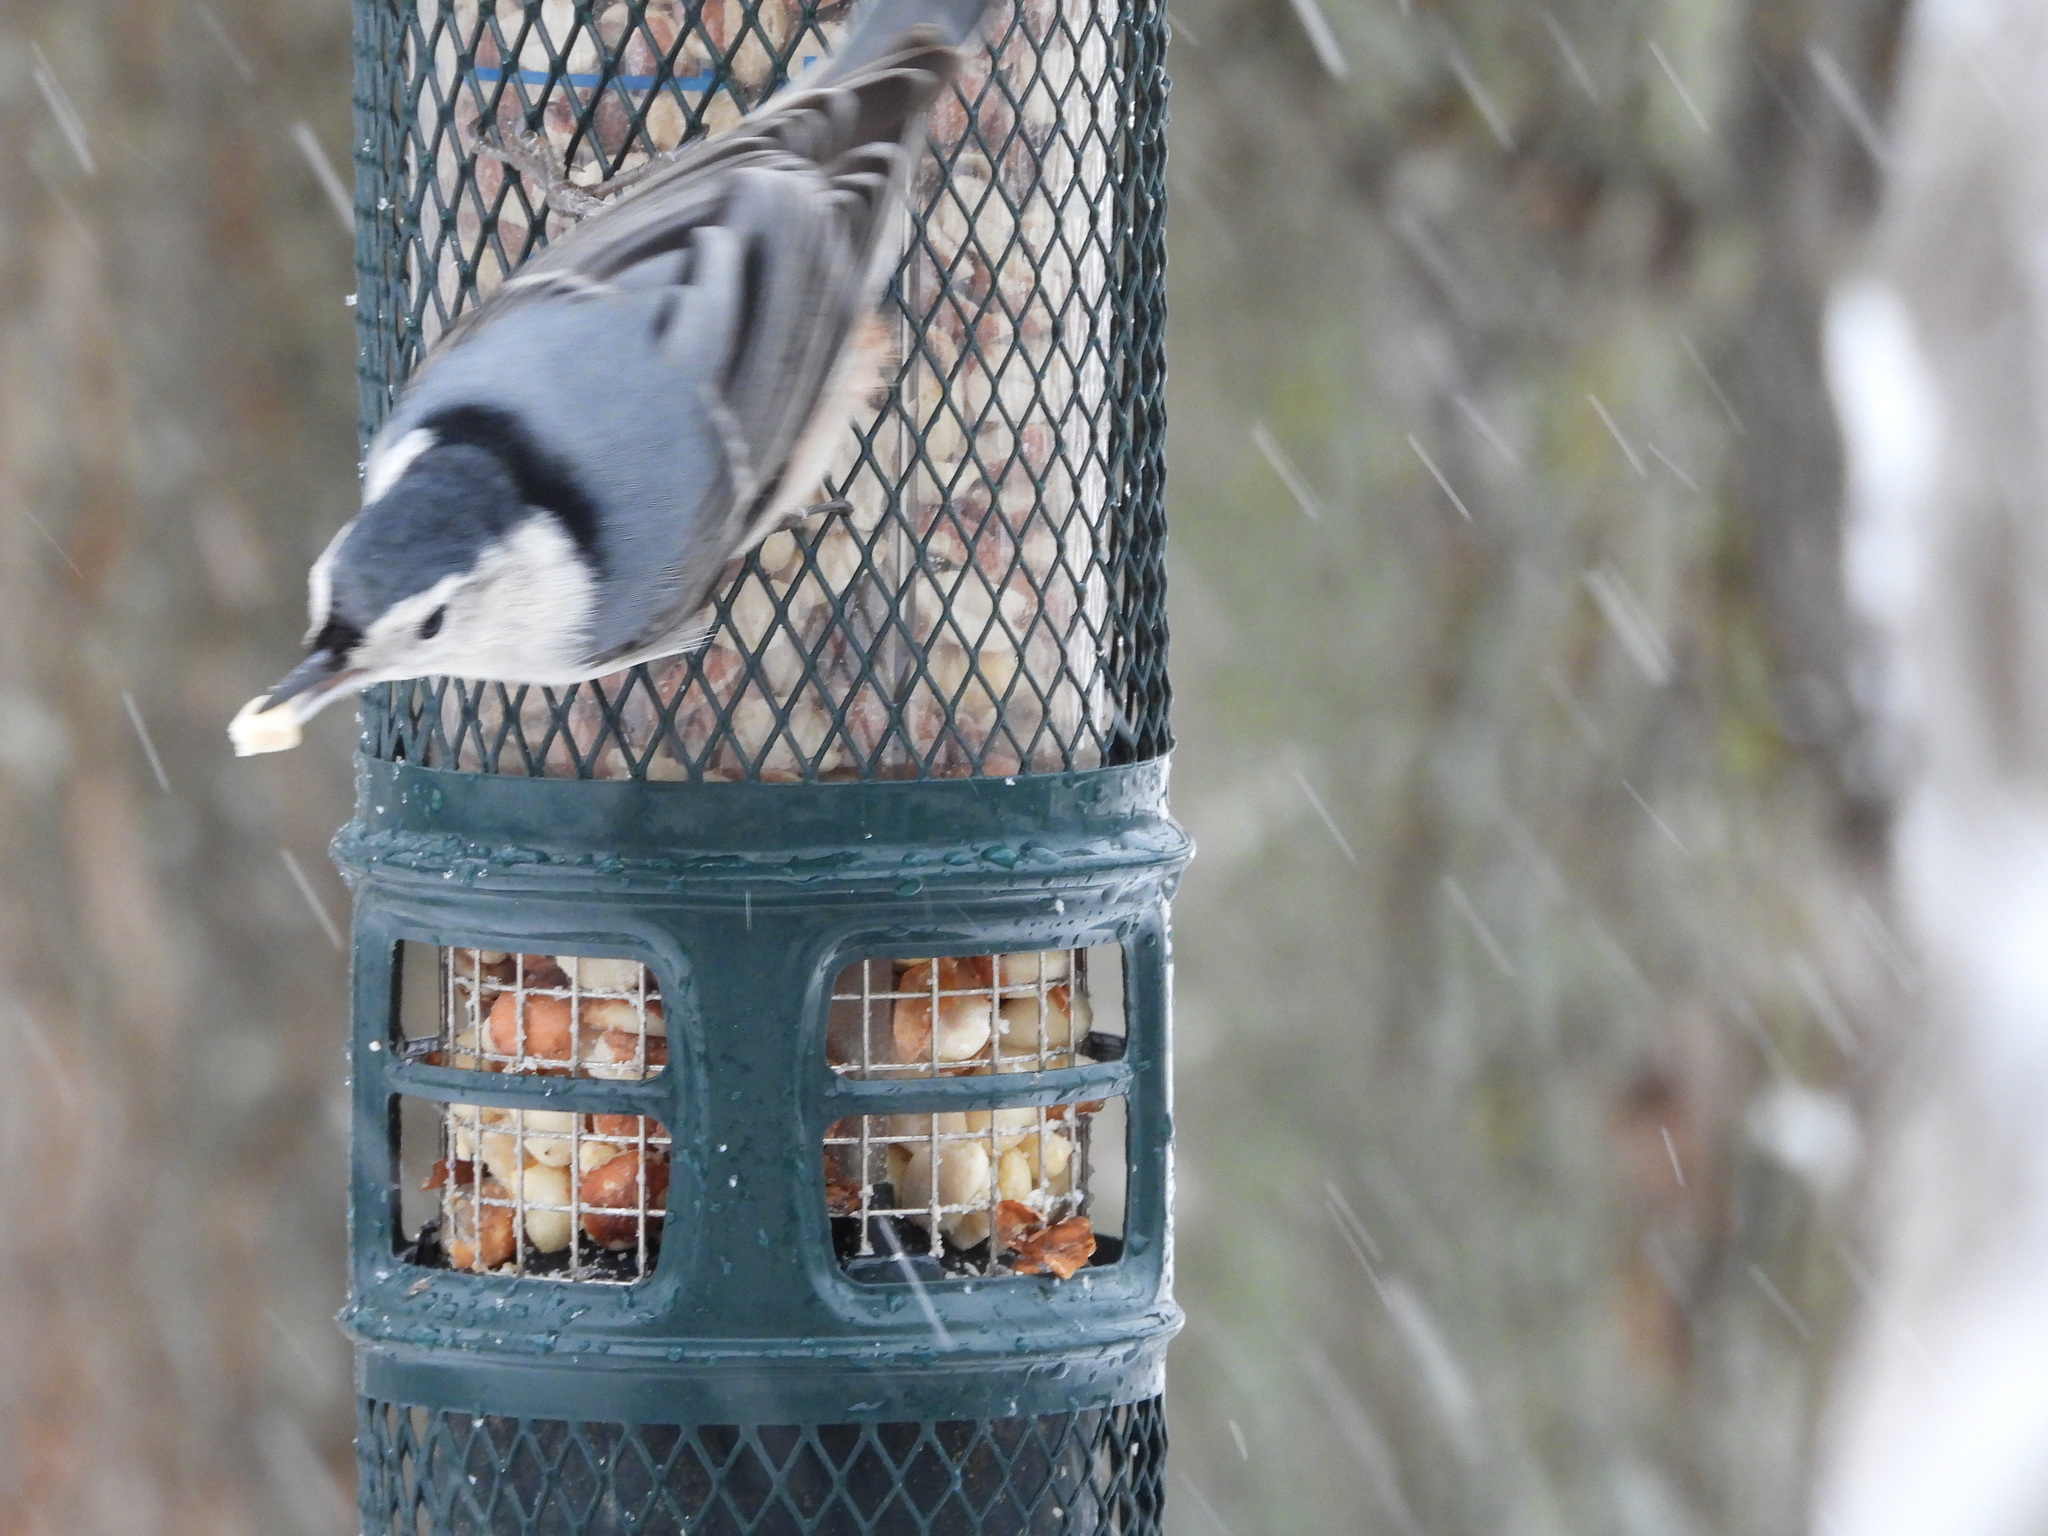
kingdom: Animalia
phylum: Chordata
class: Aves
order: Passeriformes
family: Sittidae
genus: Sitta
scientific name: Sitta carolinensis
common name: White-breasted nuthatch
